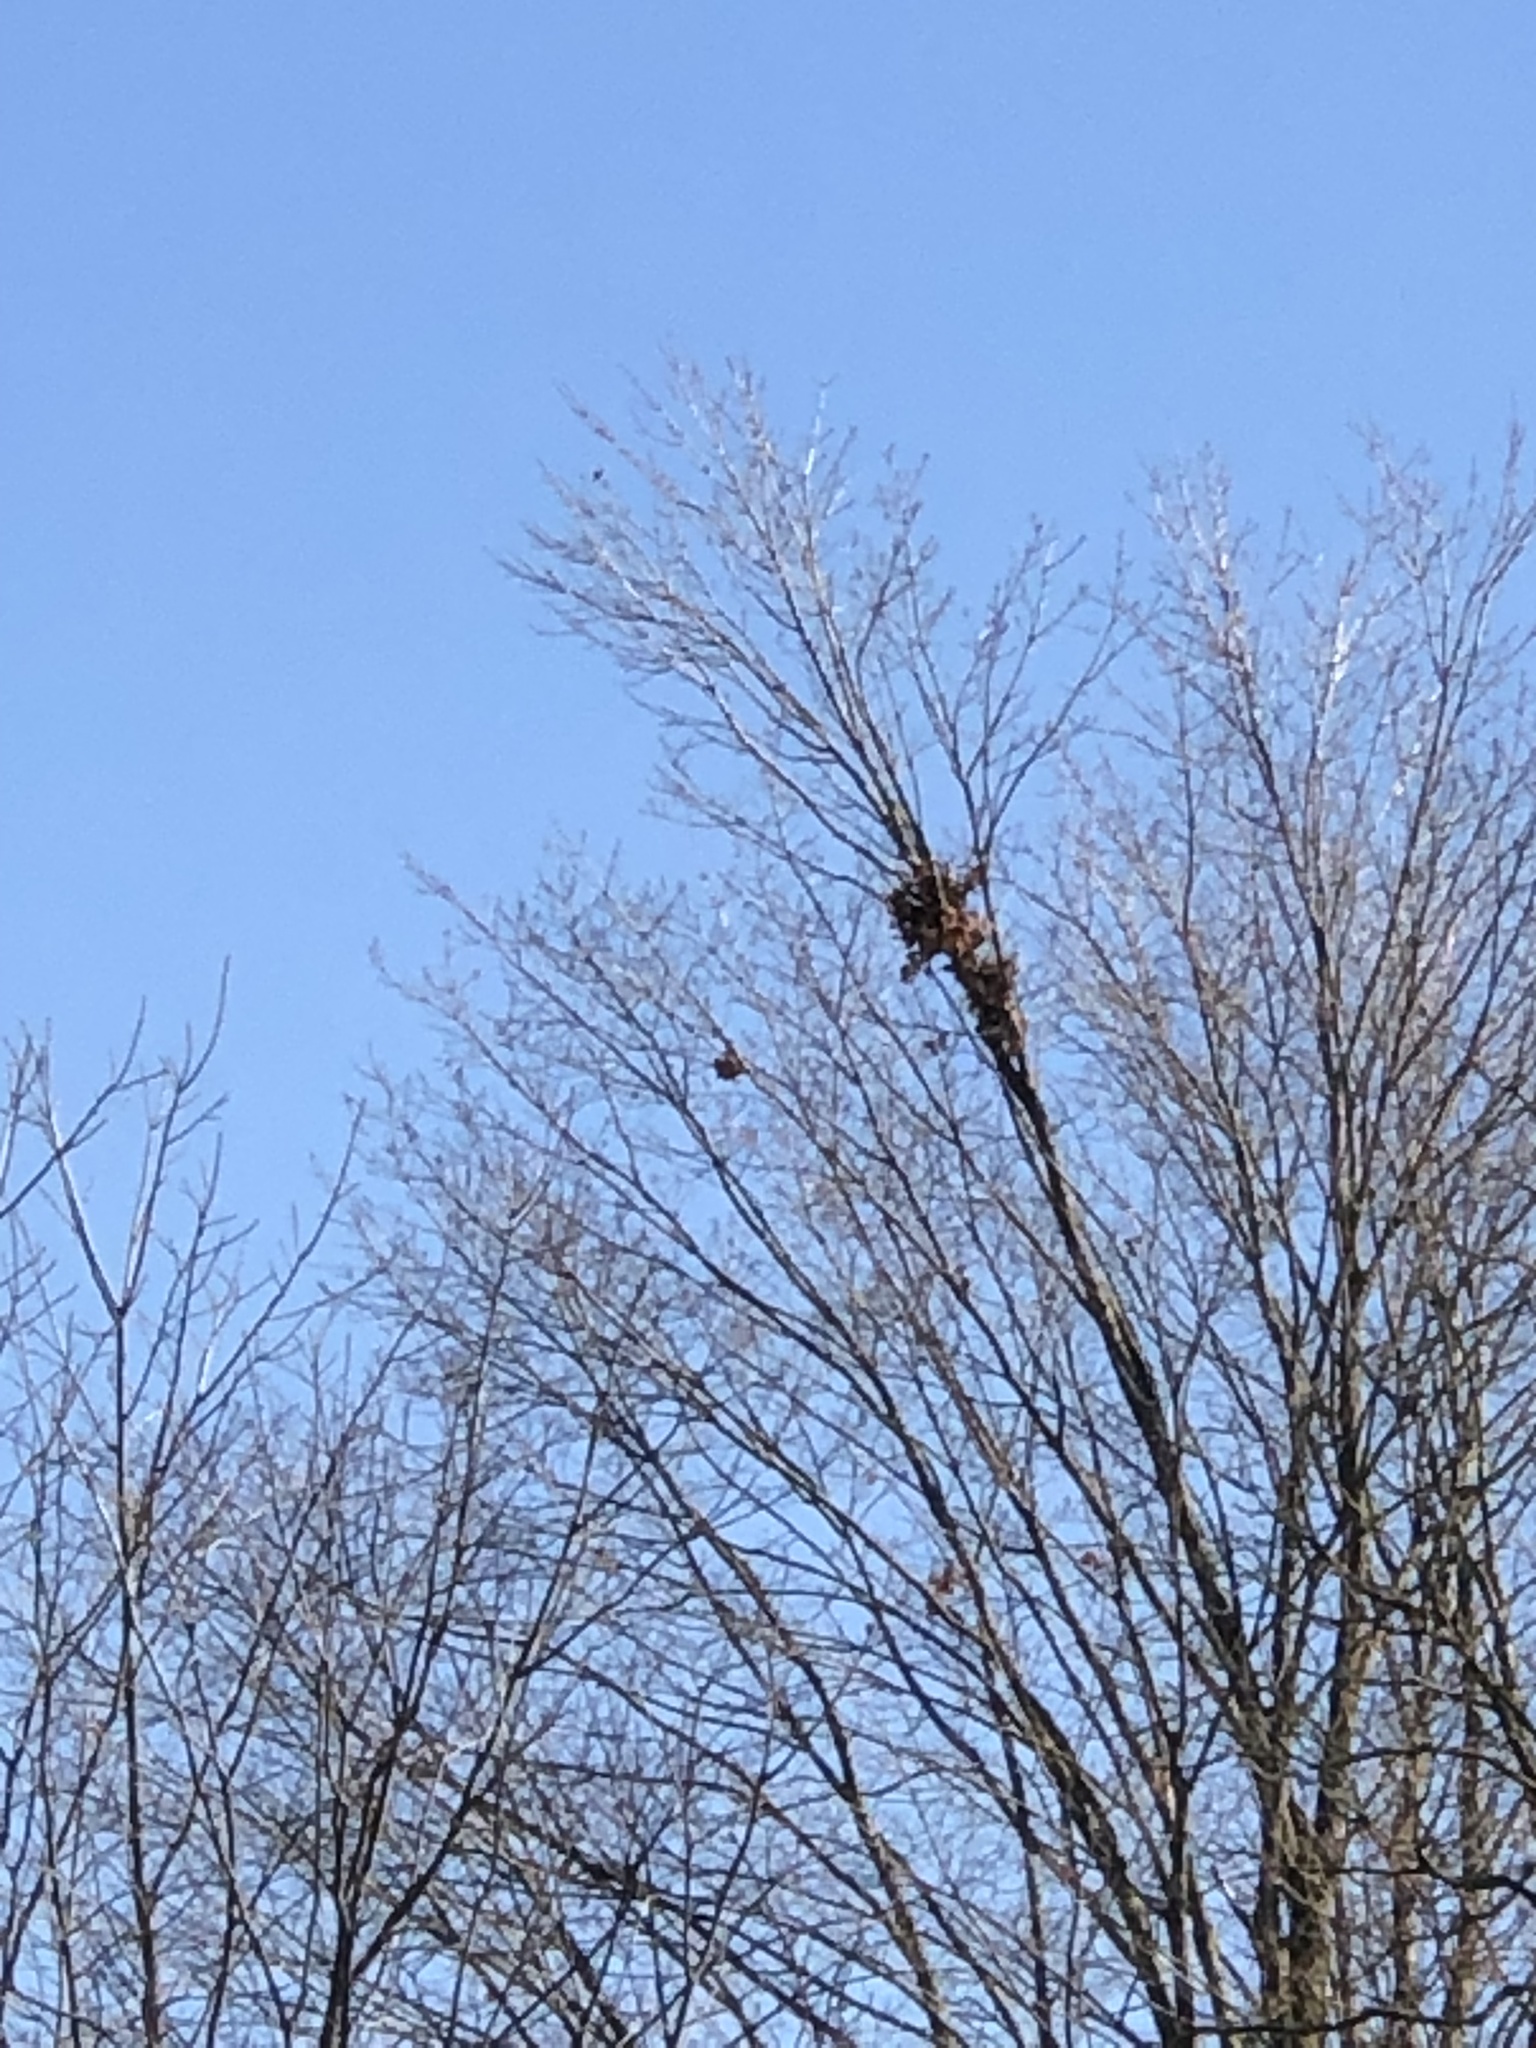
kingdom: Animalia
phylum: Chordata
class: Mammalia
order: Rodentia
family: Sciuridae
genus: Sciurus
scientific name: Sciurus carolinensis
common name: Eastern gray squirrel
